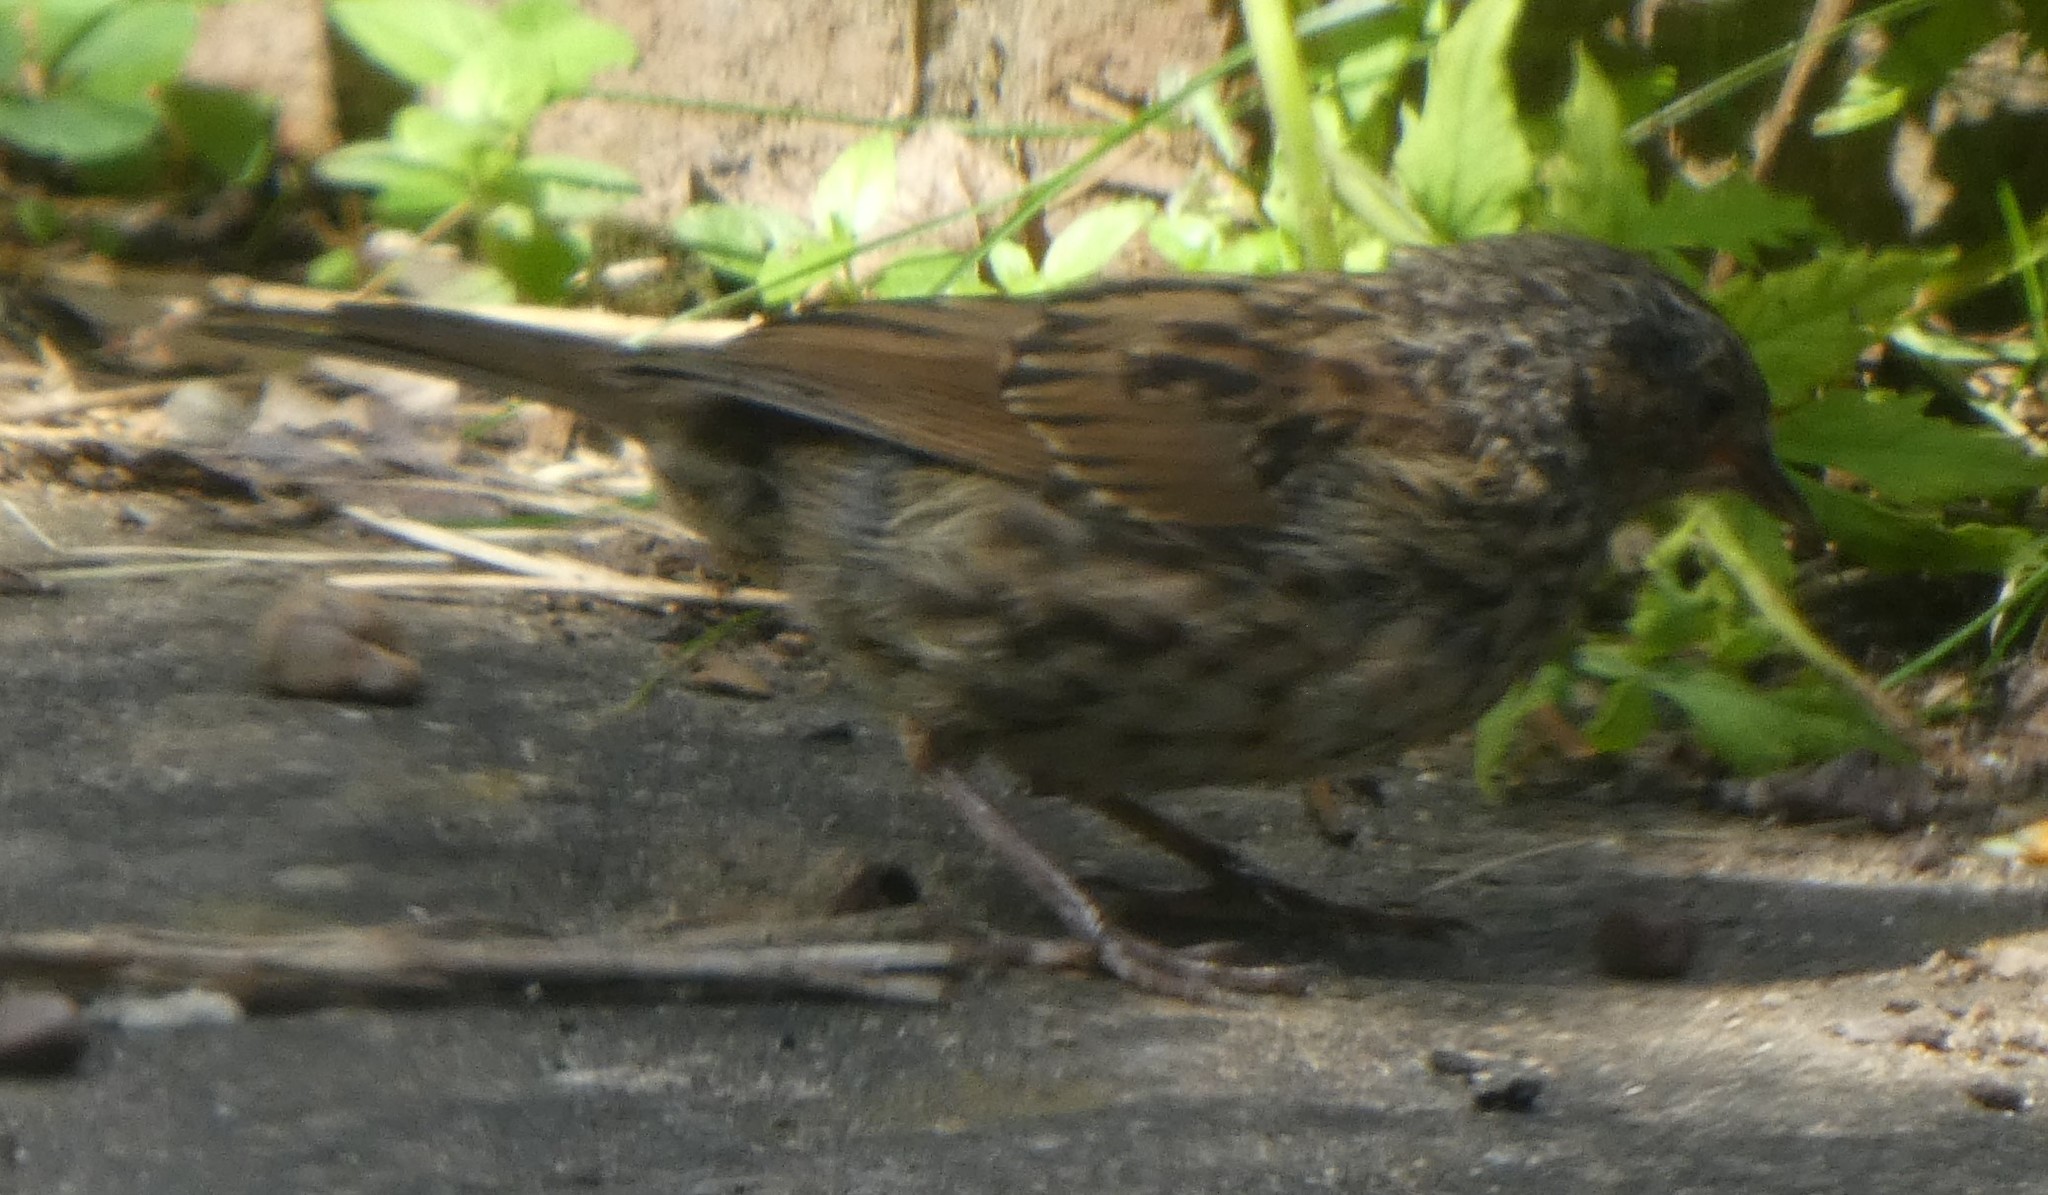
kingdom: Animalia
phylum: Chordata
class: Aves
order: Passeriformes
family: Prunellidae
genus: Prunella
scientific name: Prunella modularis
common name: Dunnock
